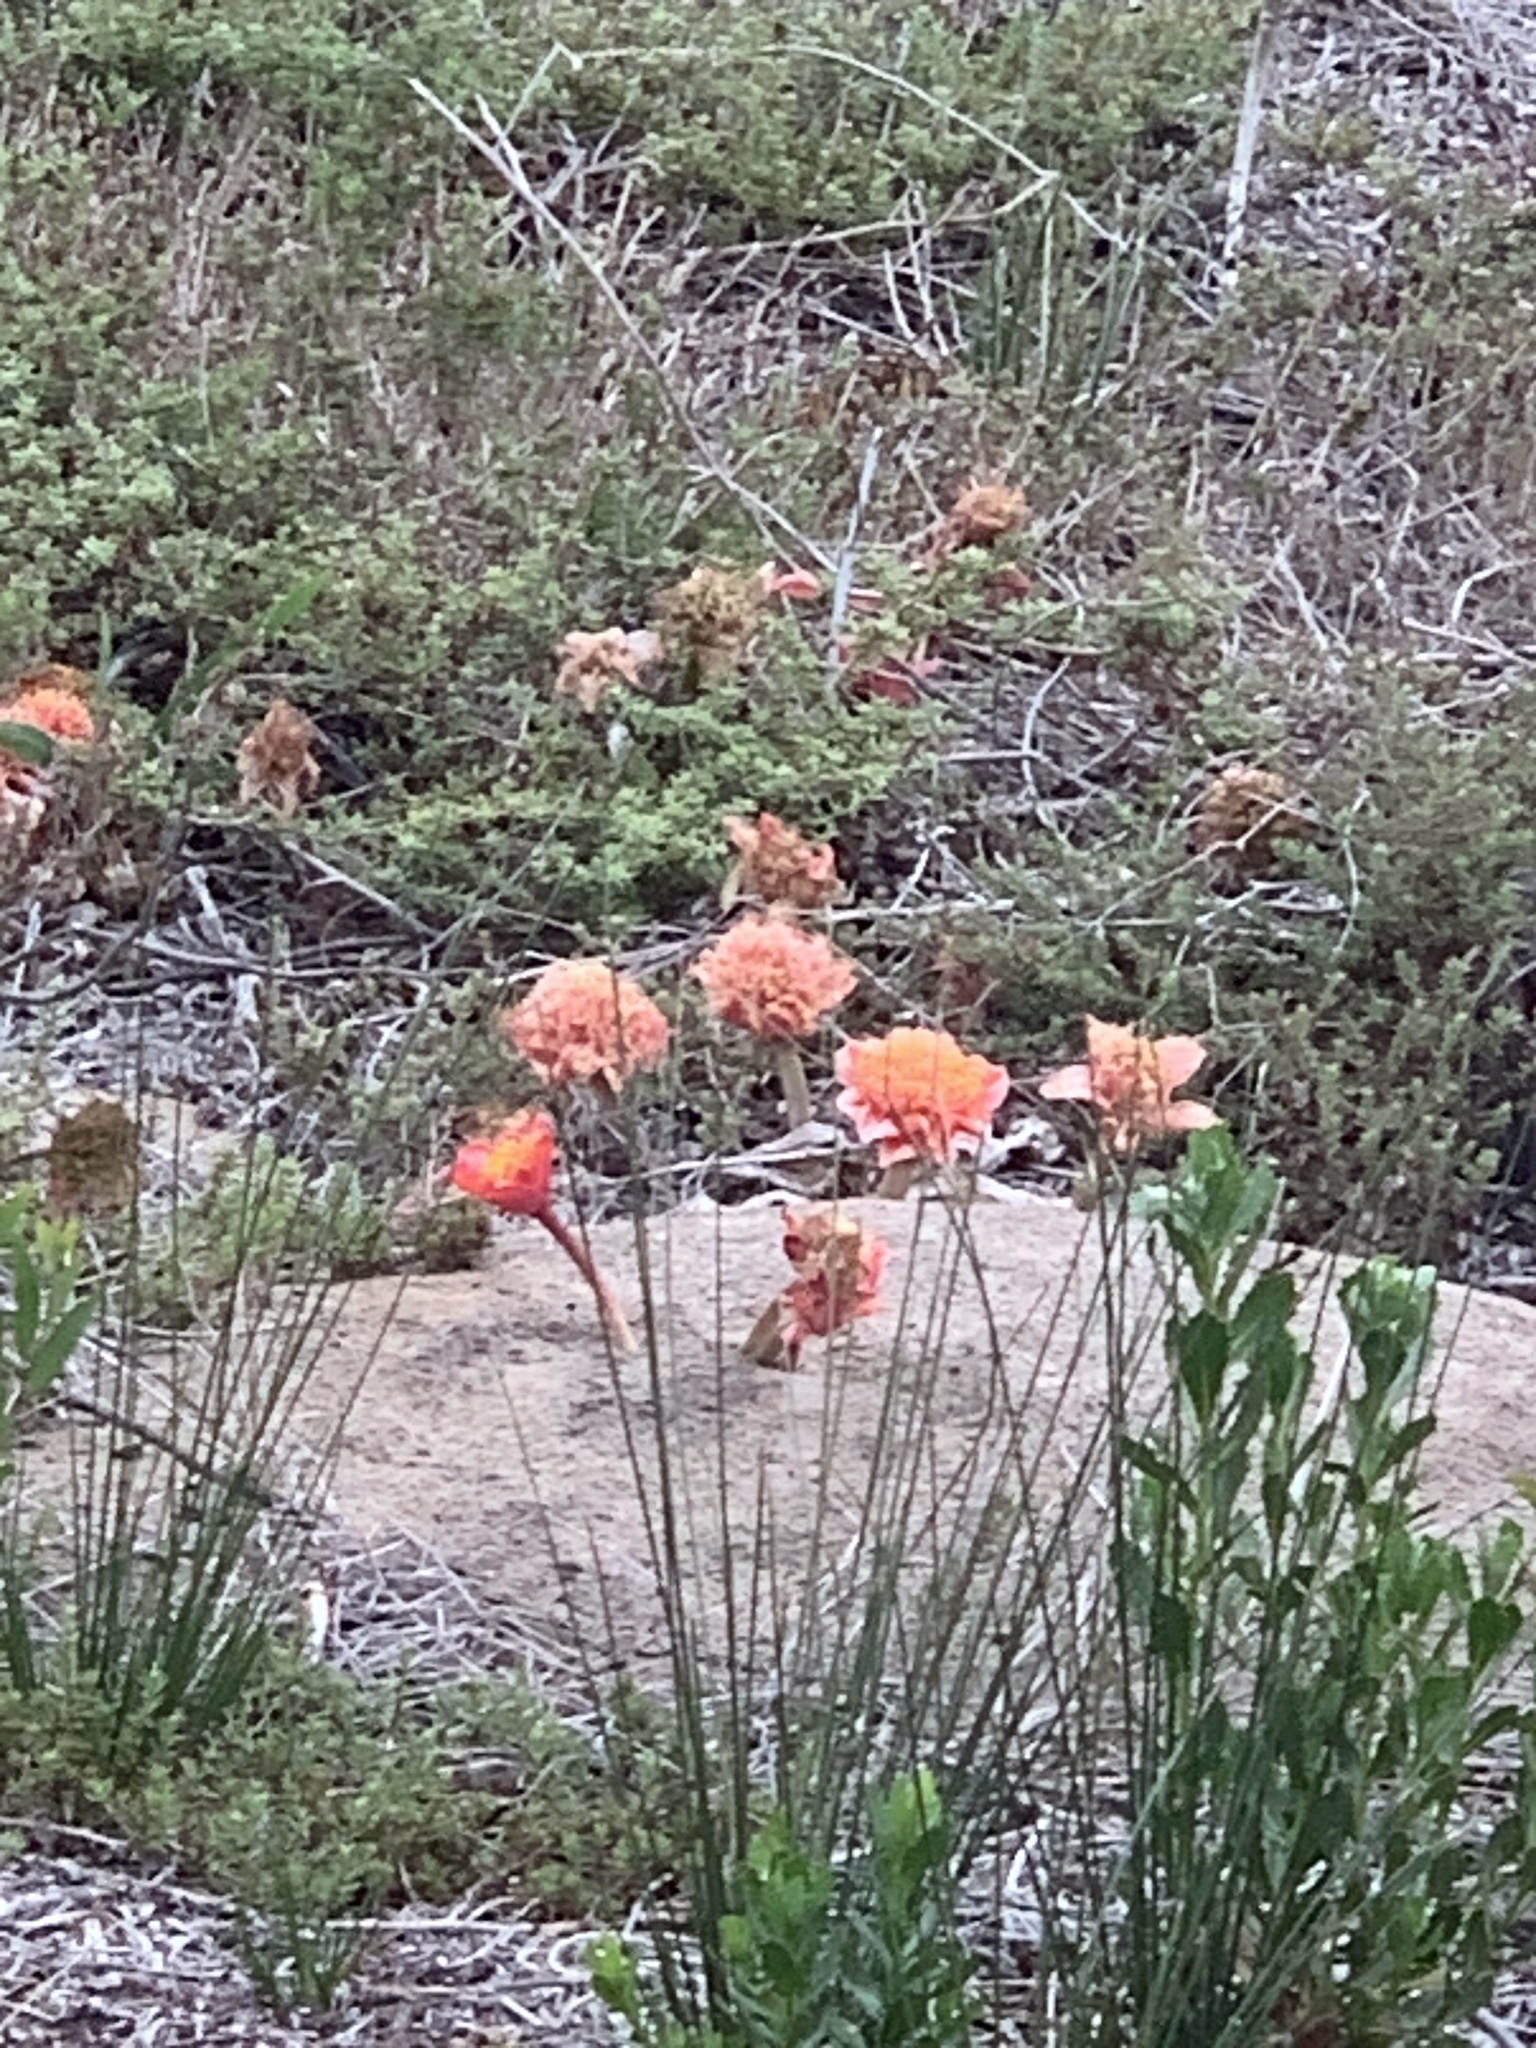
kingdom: Plantae
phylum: Tracheophyta
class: Liliopsida
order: Asparagales
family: Amaryllidaceae
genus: Haemanthus
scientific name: Haemanthus coccineus
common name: Cape-tulip
